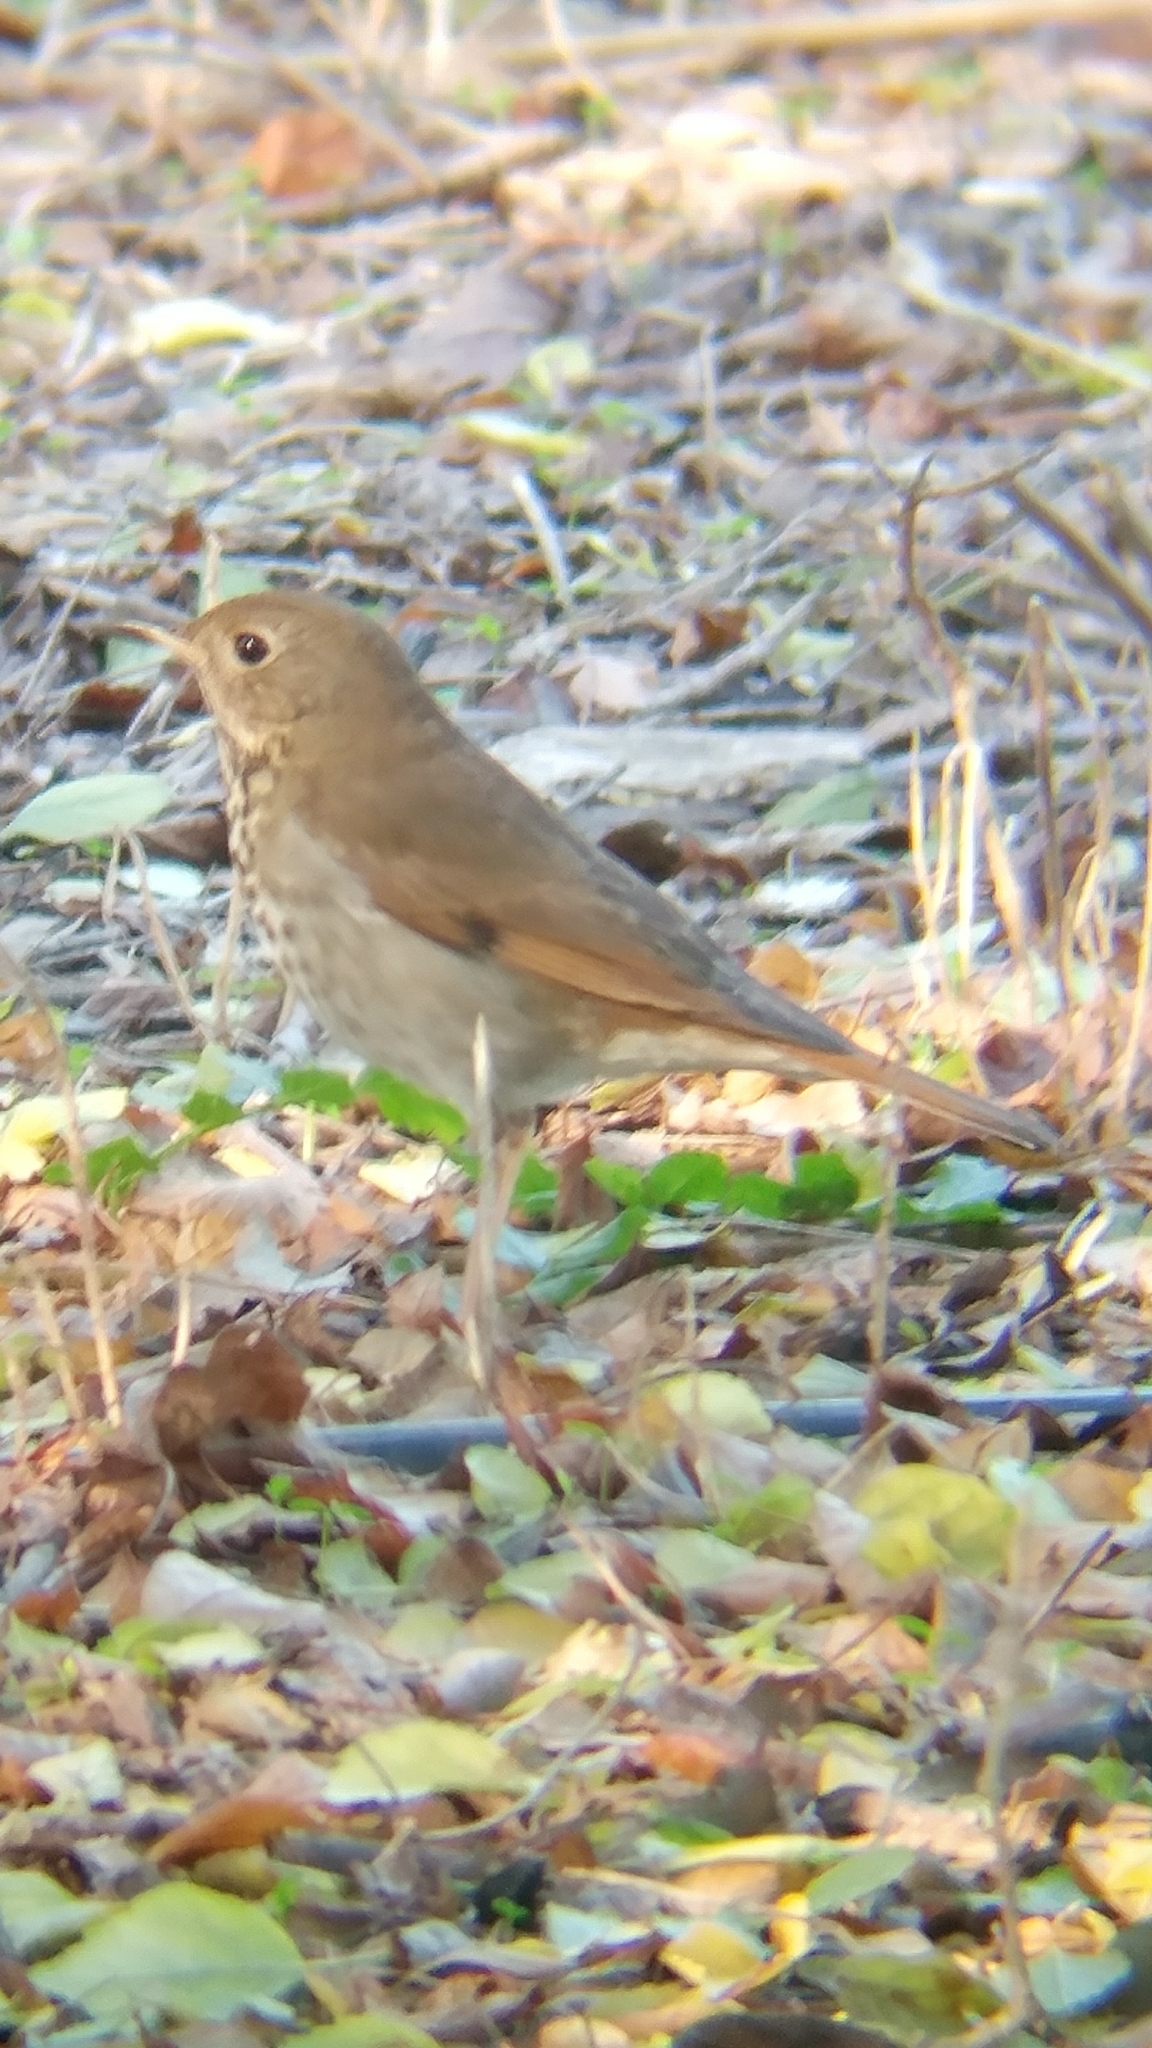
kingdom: Animalia
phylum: Chordata
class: Aves
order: Passeriformes
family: Turdidae
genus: Catharus
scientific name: Catharus guttatus
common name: Hermit thrush
